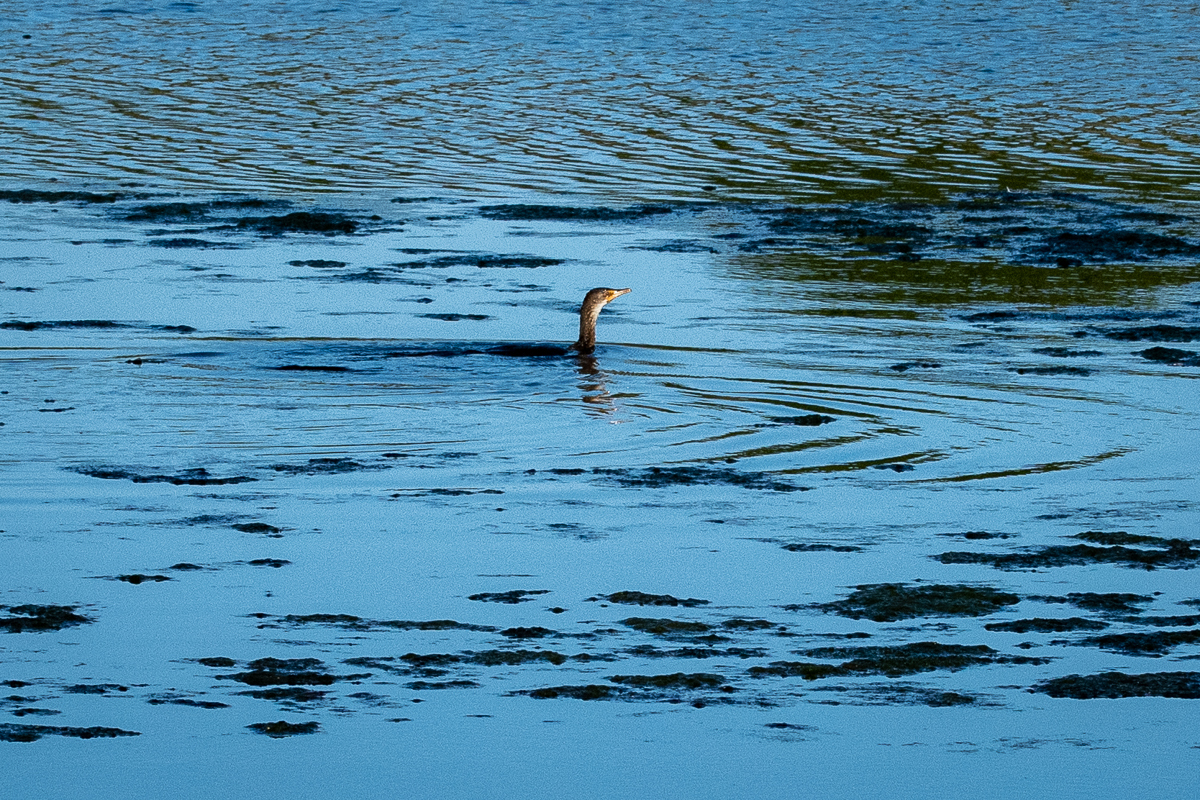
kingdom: Animalia
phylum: Chordata
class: Aves
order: Suliformes
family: Phalacrocoracidae
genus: Phalacrocorax
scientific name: Phalacrocorax carbo
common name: Great cormorant
